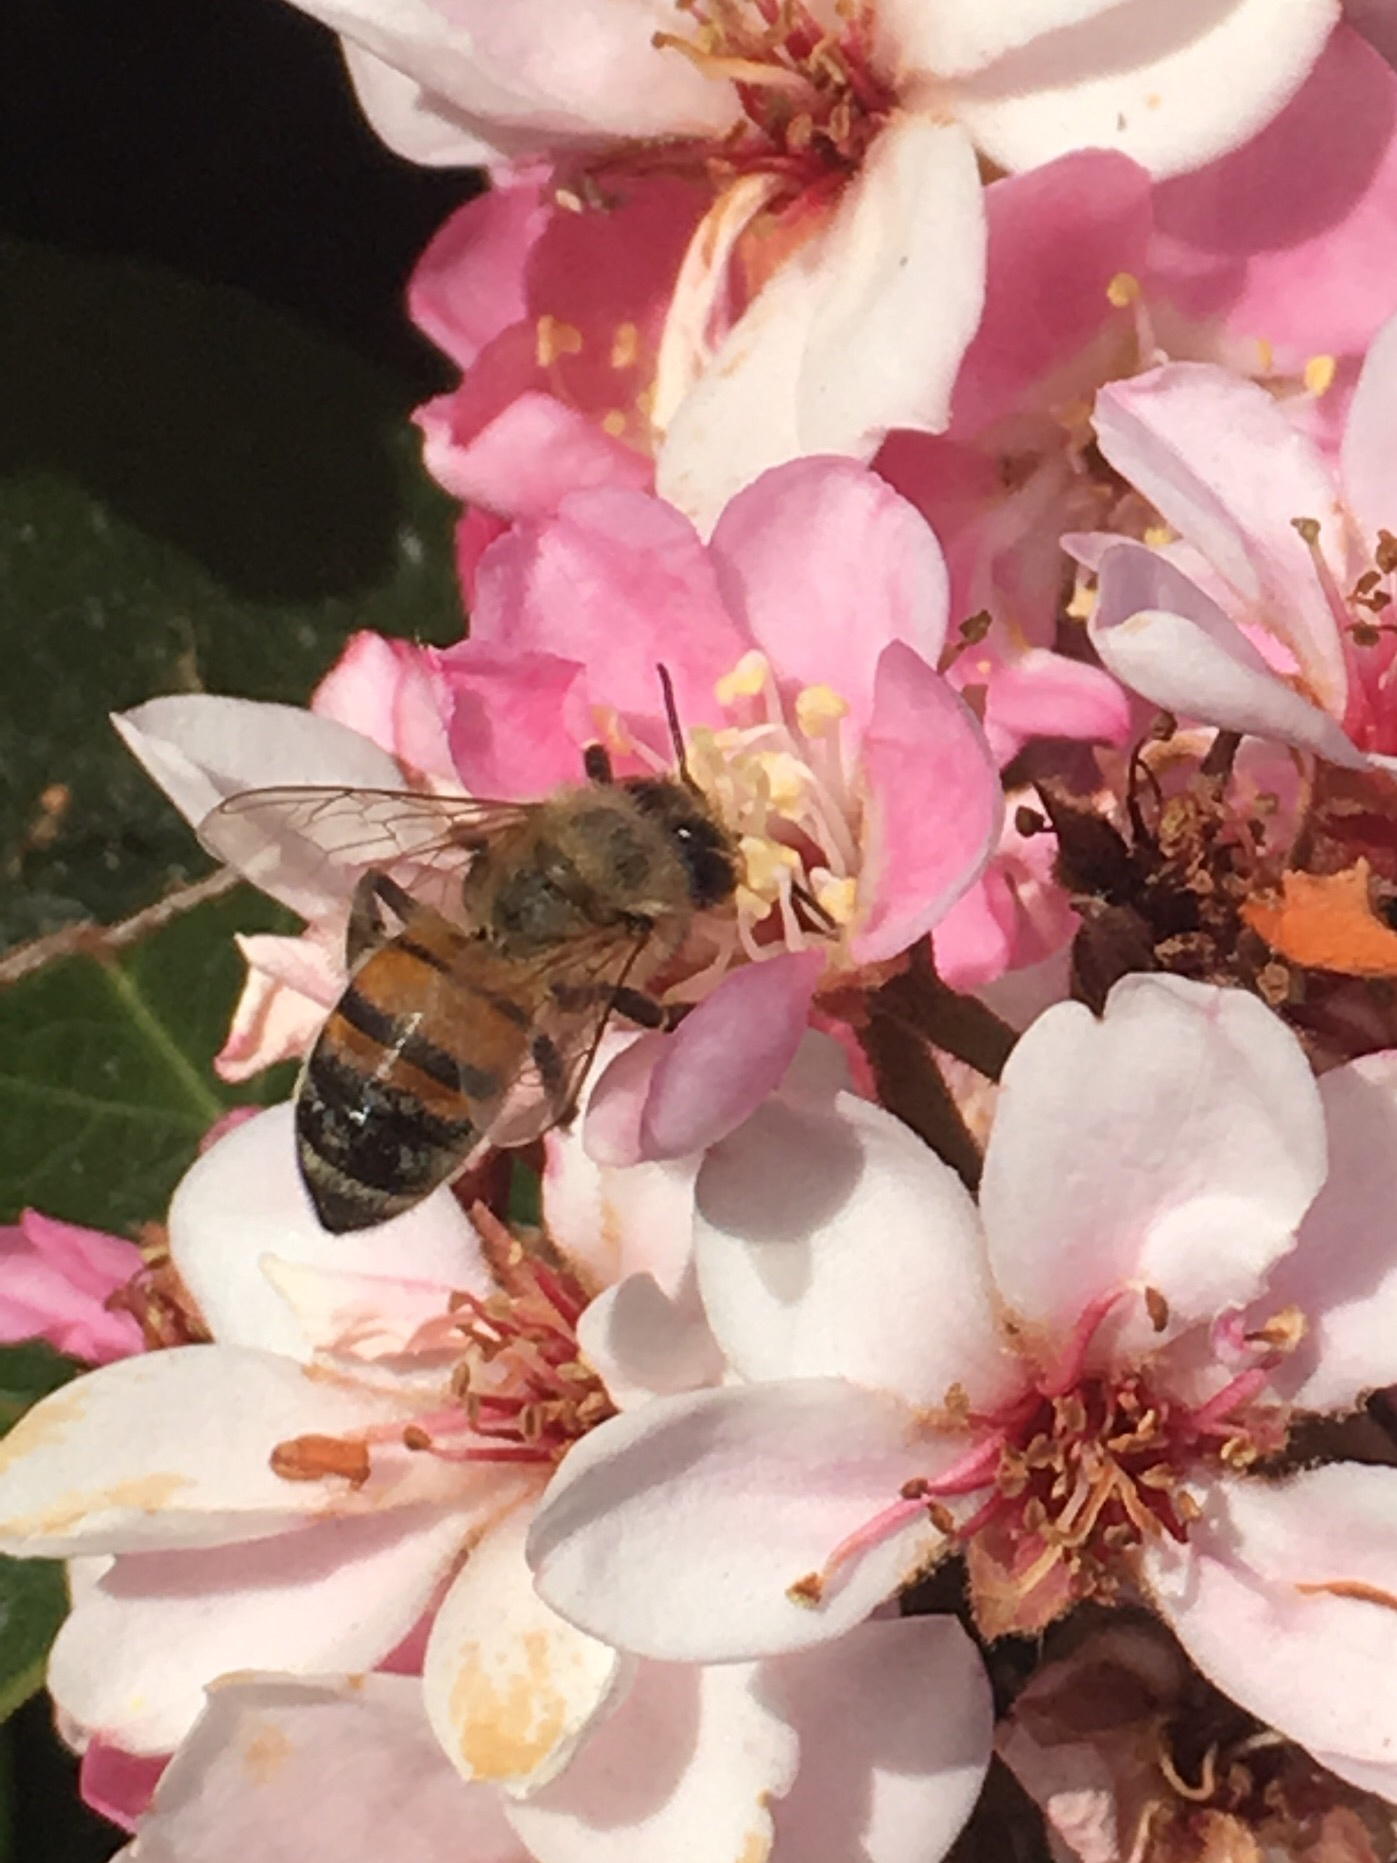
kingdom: Animalia
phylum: Arthropoda
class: Insecta
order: Hymenoptera
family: Apidae
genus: Apis
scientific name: Apis mellifera
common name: Honey bee
